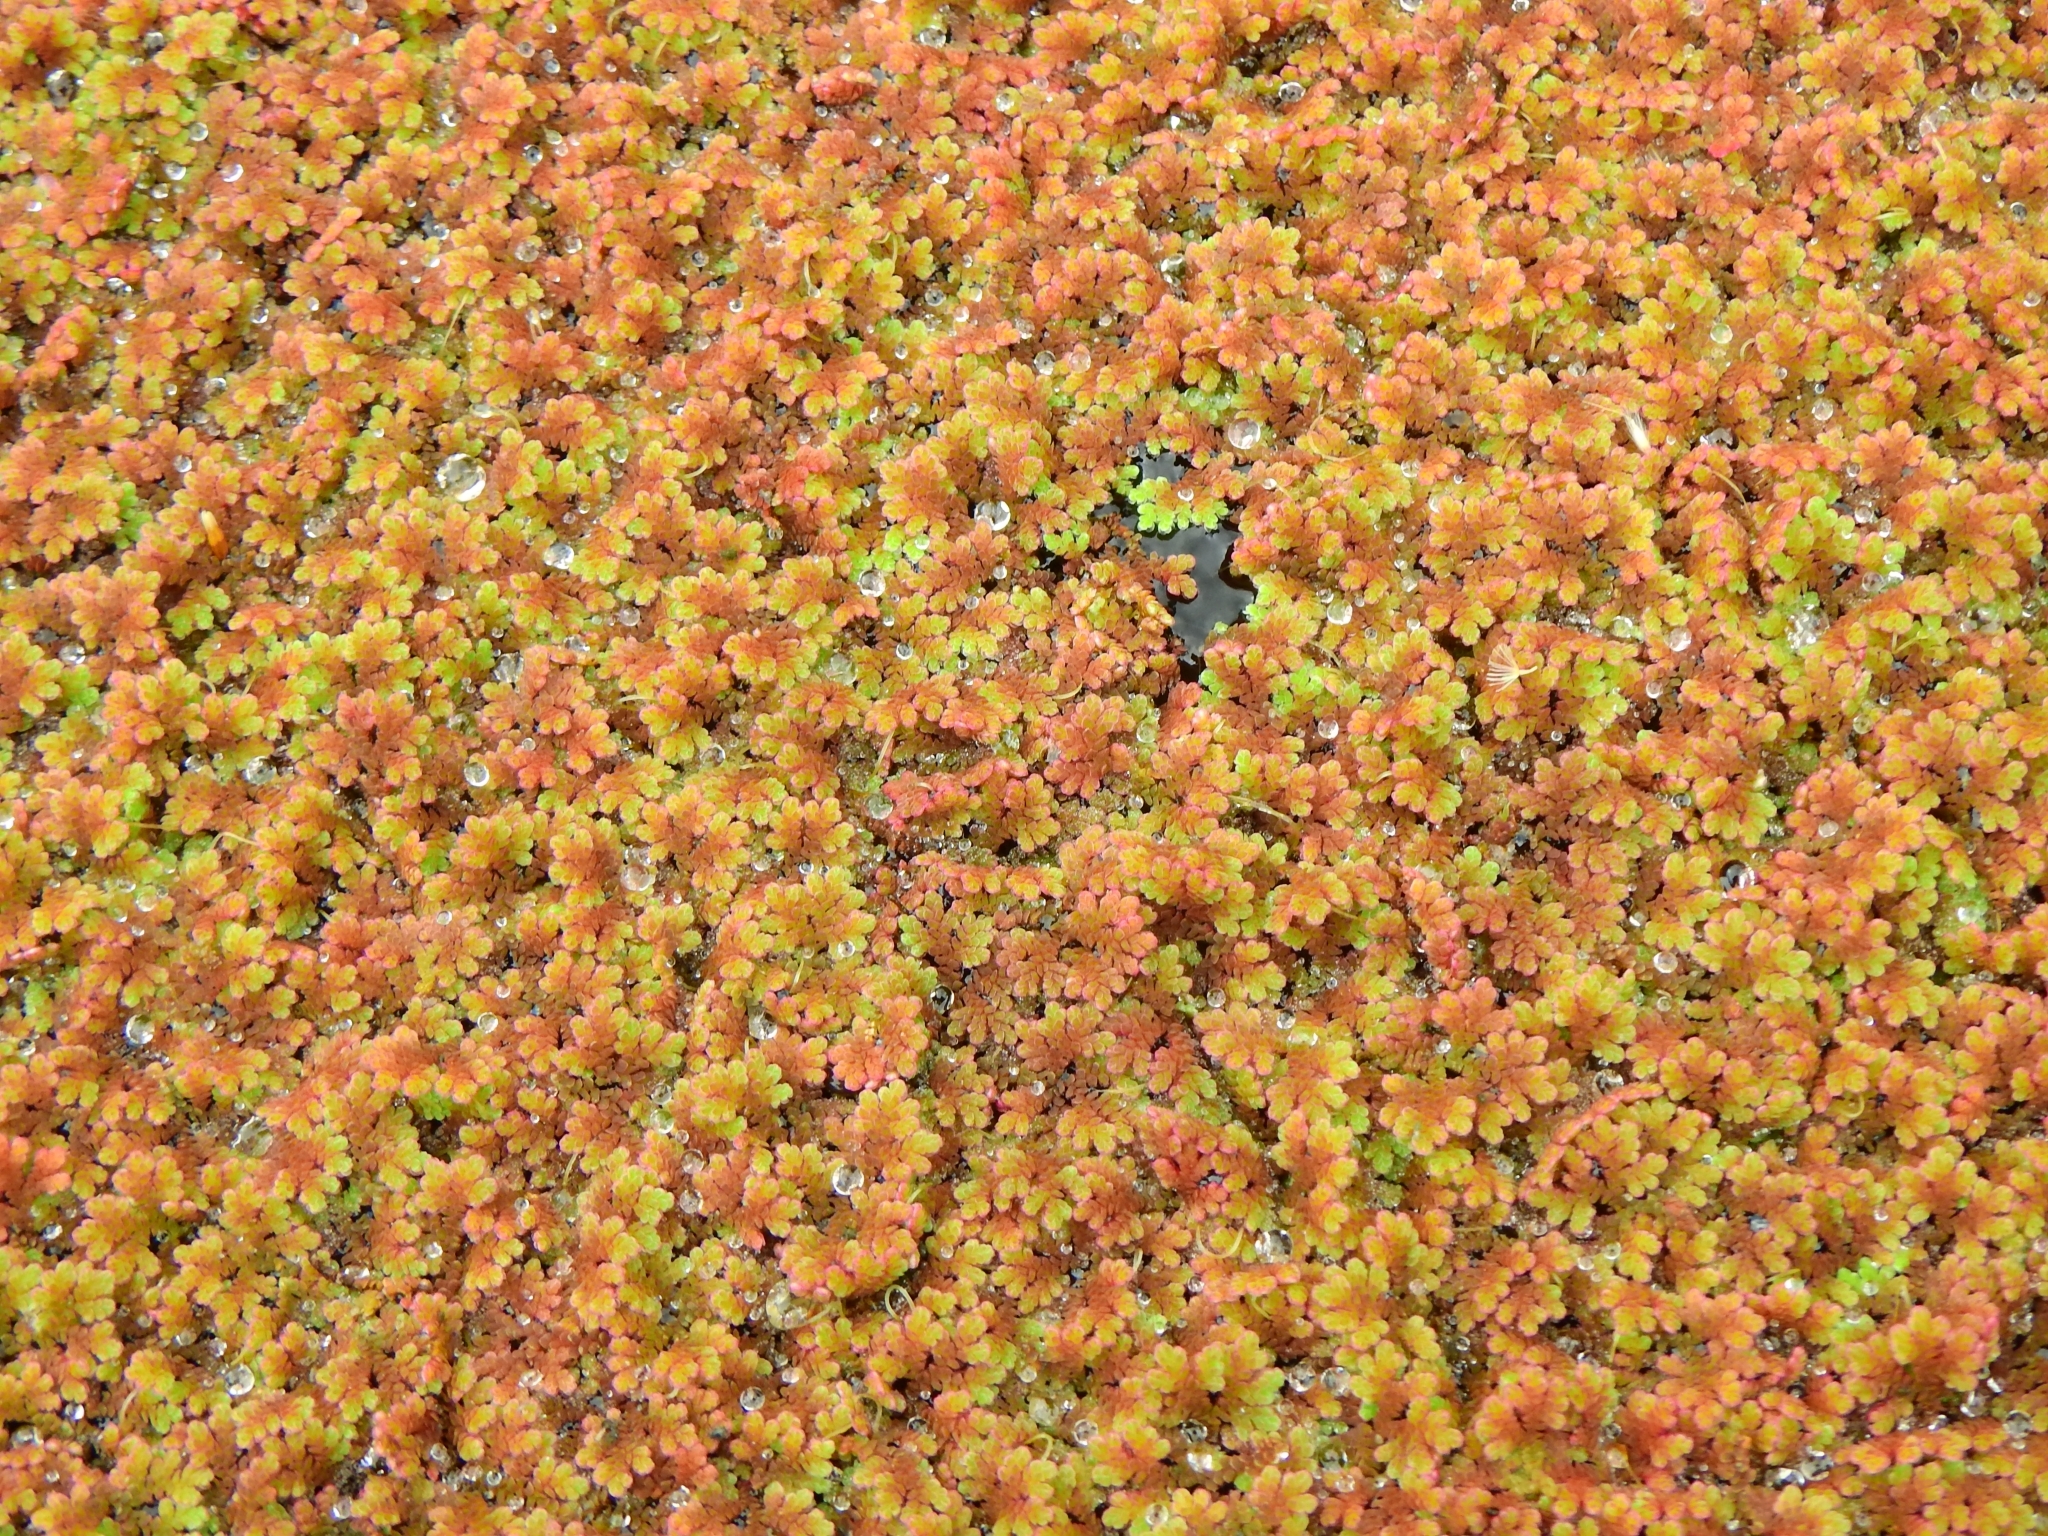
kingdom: Plantae
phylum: Tracheophyta
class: Polypodiopsida
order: Salviniales
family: Salviniaceae
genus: Azolla
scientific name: Azolla filiculoides
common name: Water fern
